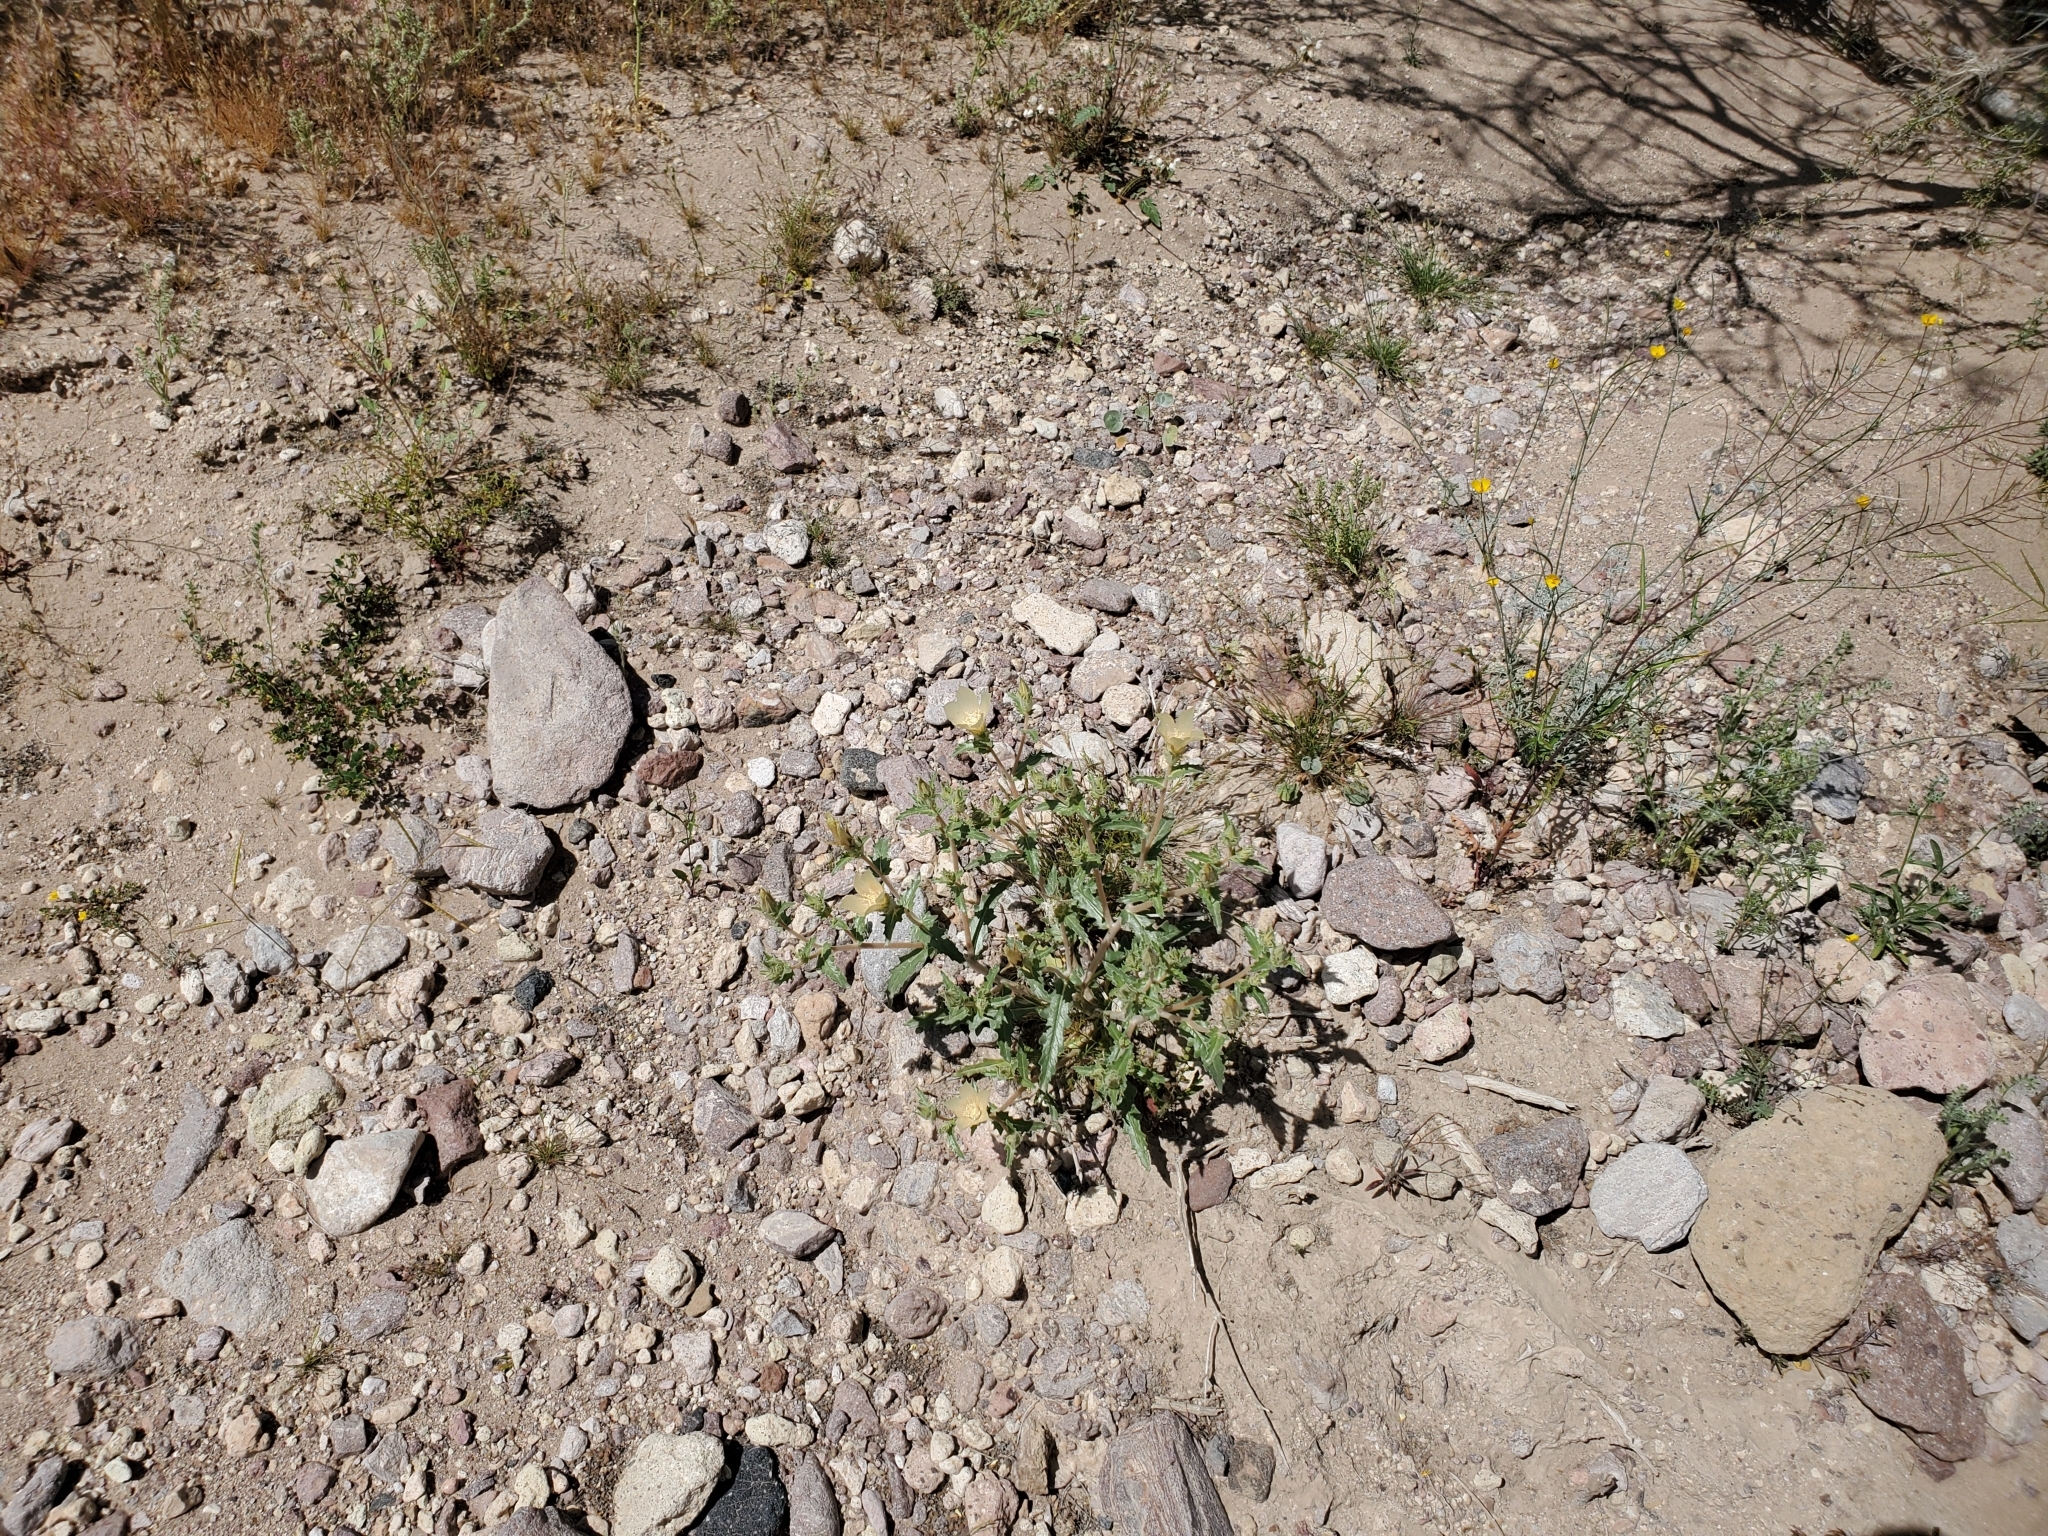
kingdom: Plantae
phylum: Tracheophyta
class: Magnoliopsida
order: Cornales
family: Loasaceae
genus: Mentzelia
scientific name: Mentzelia involucrata
